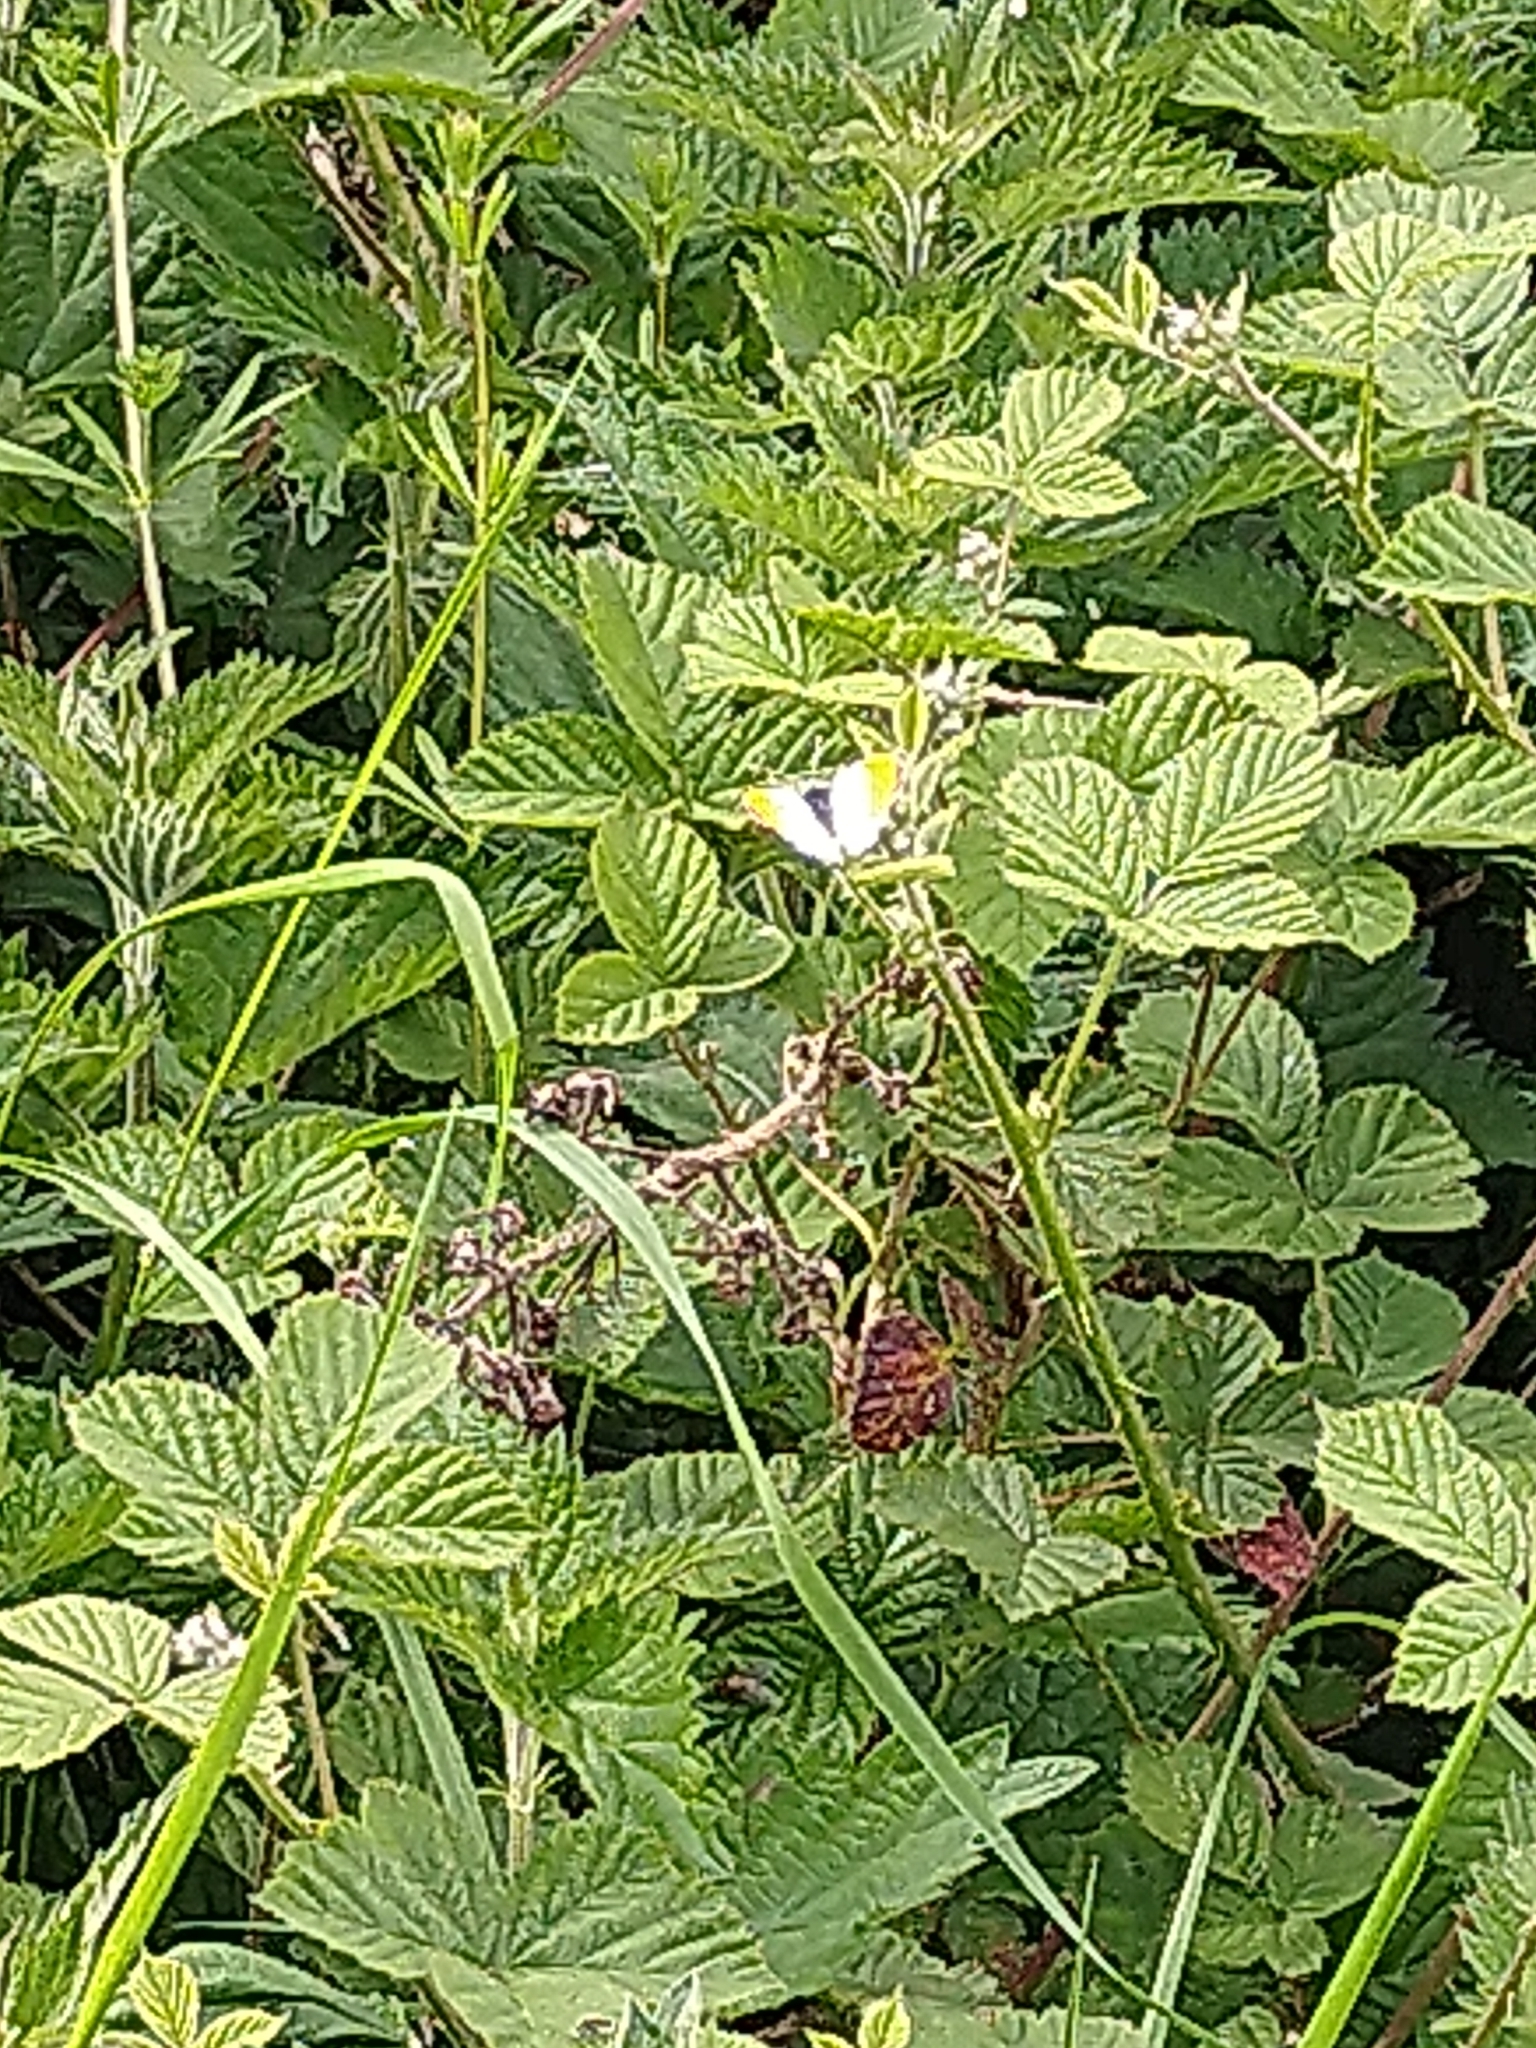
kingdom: Animalia
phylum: Arthropoda
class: Insecta
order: Lepidoptera
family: Pieridae
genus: Anthocharis
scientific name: Anthocharis cardamines
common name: Orange-tip
